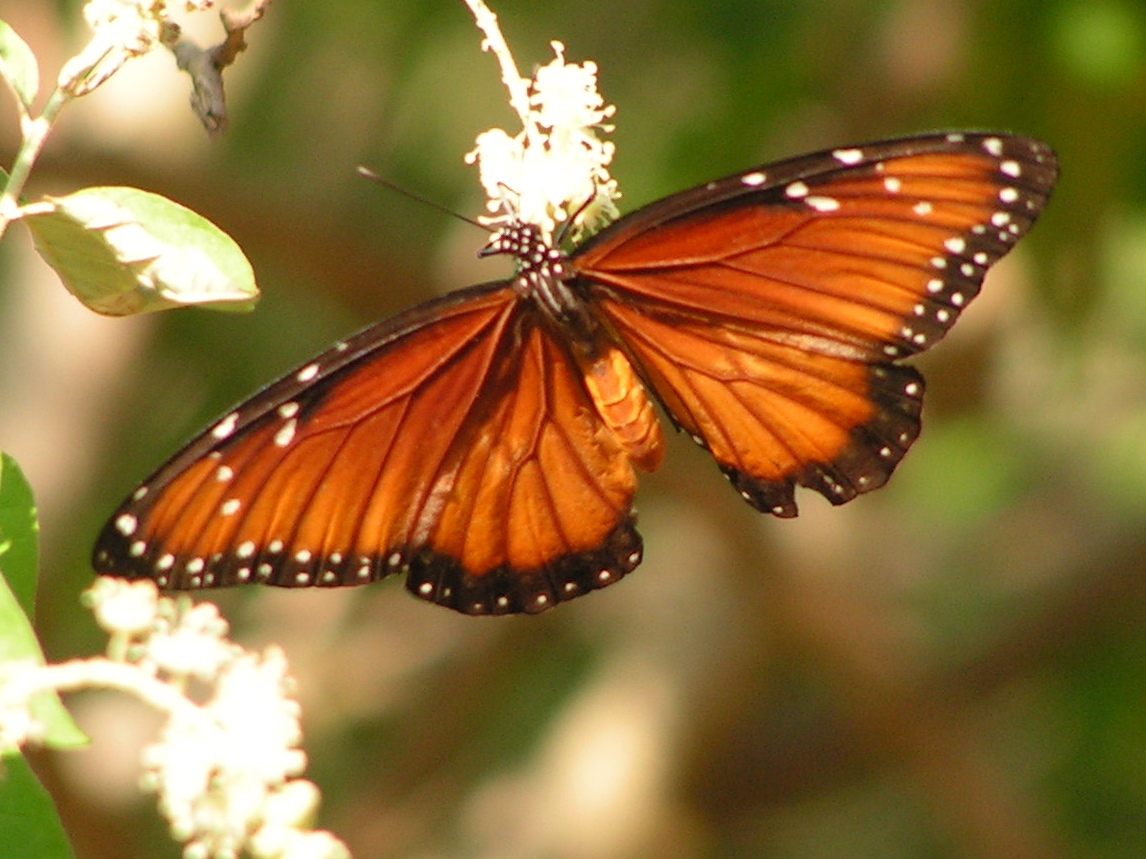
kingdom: Animalia
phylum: Arthropoda
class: Insecta
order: Lepidoptera
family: Nymphalidae
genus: Danaus
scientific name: Danaus eresimus
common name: Soldier
